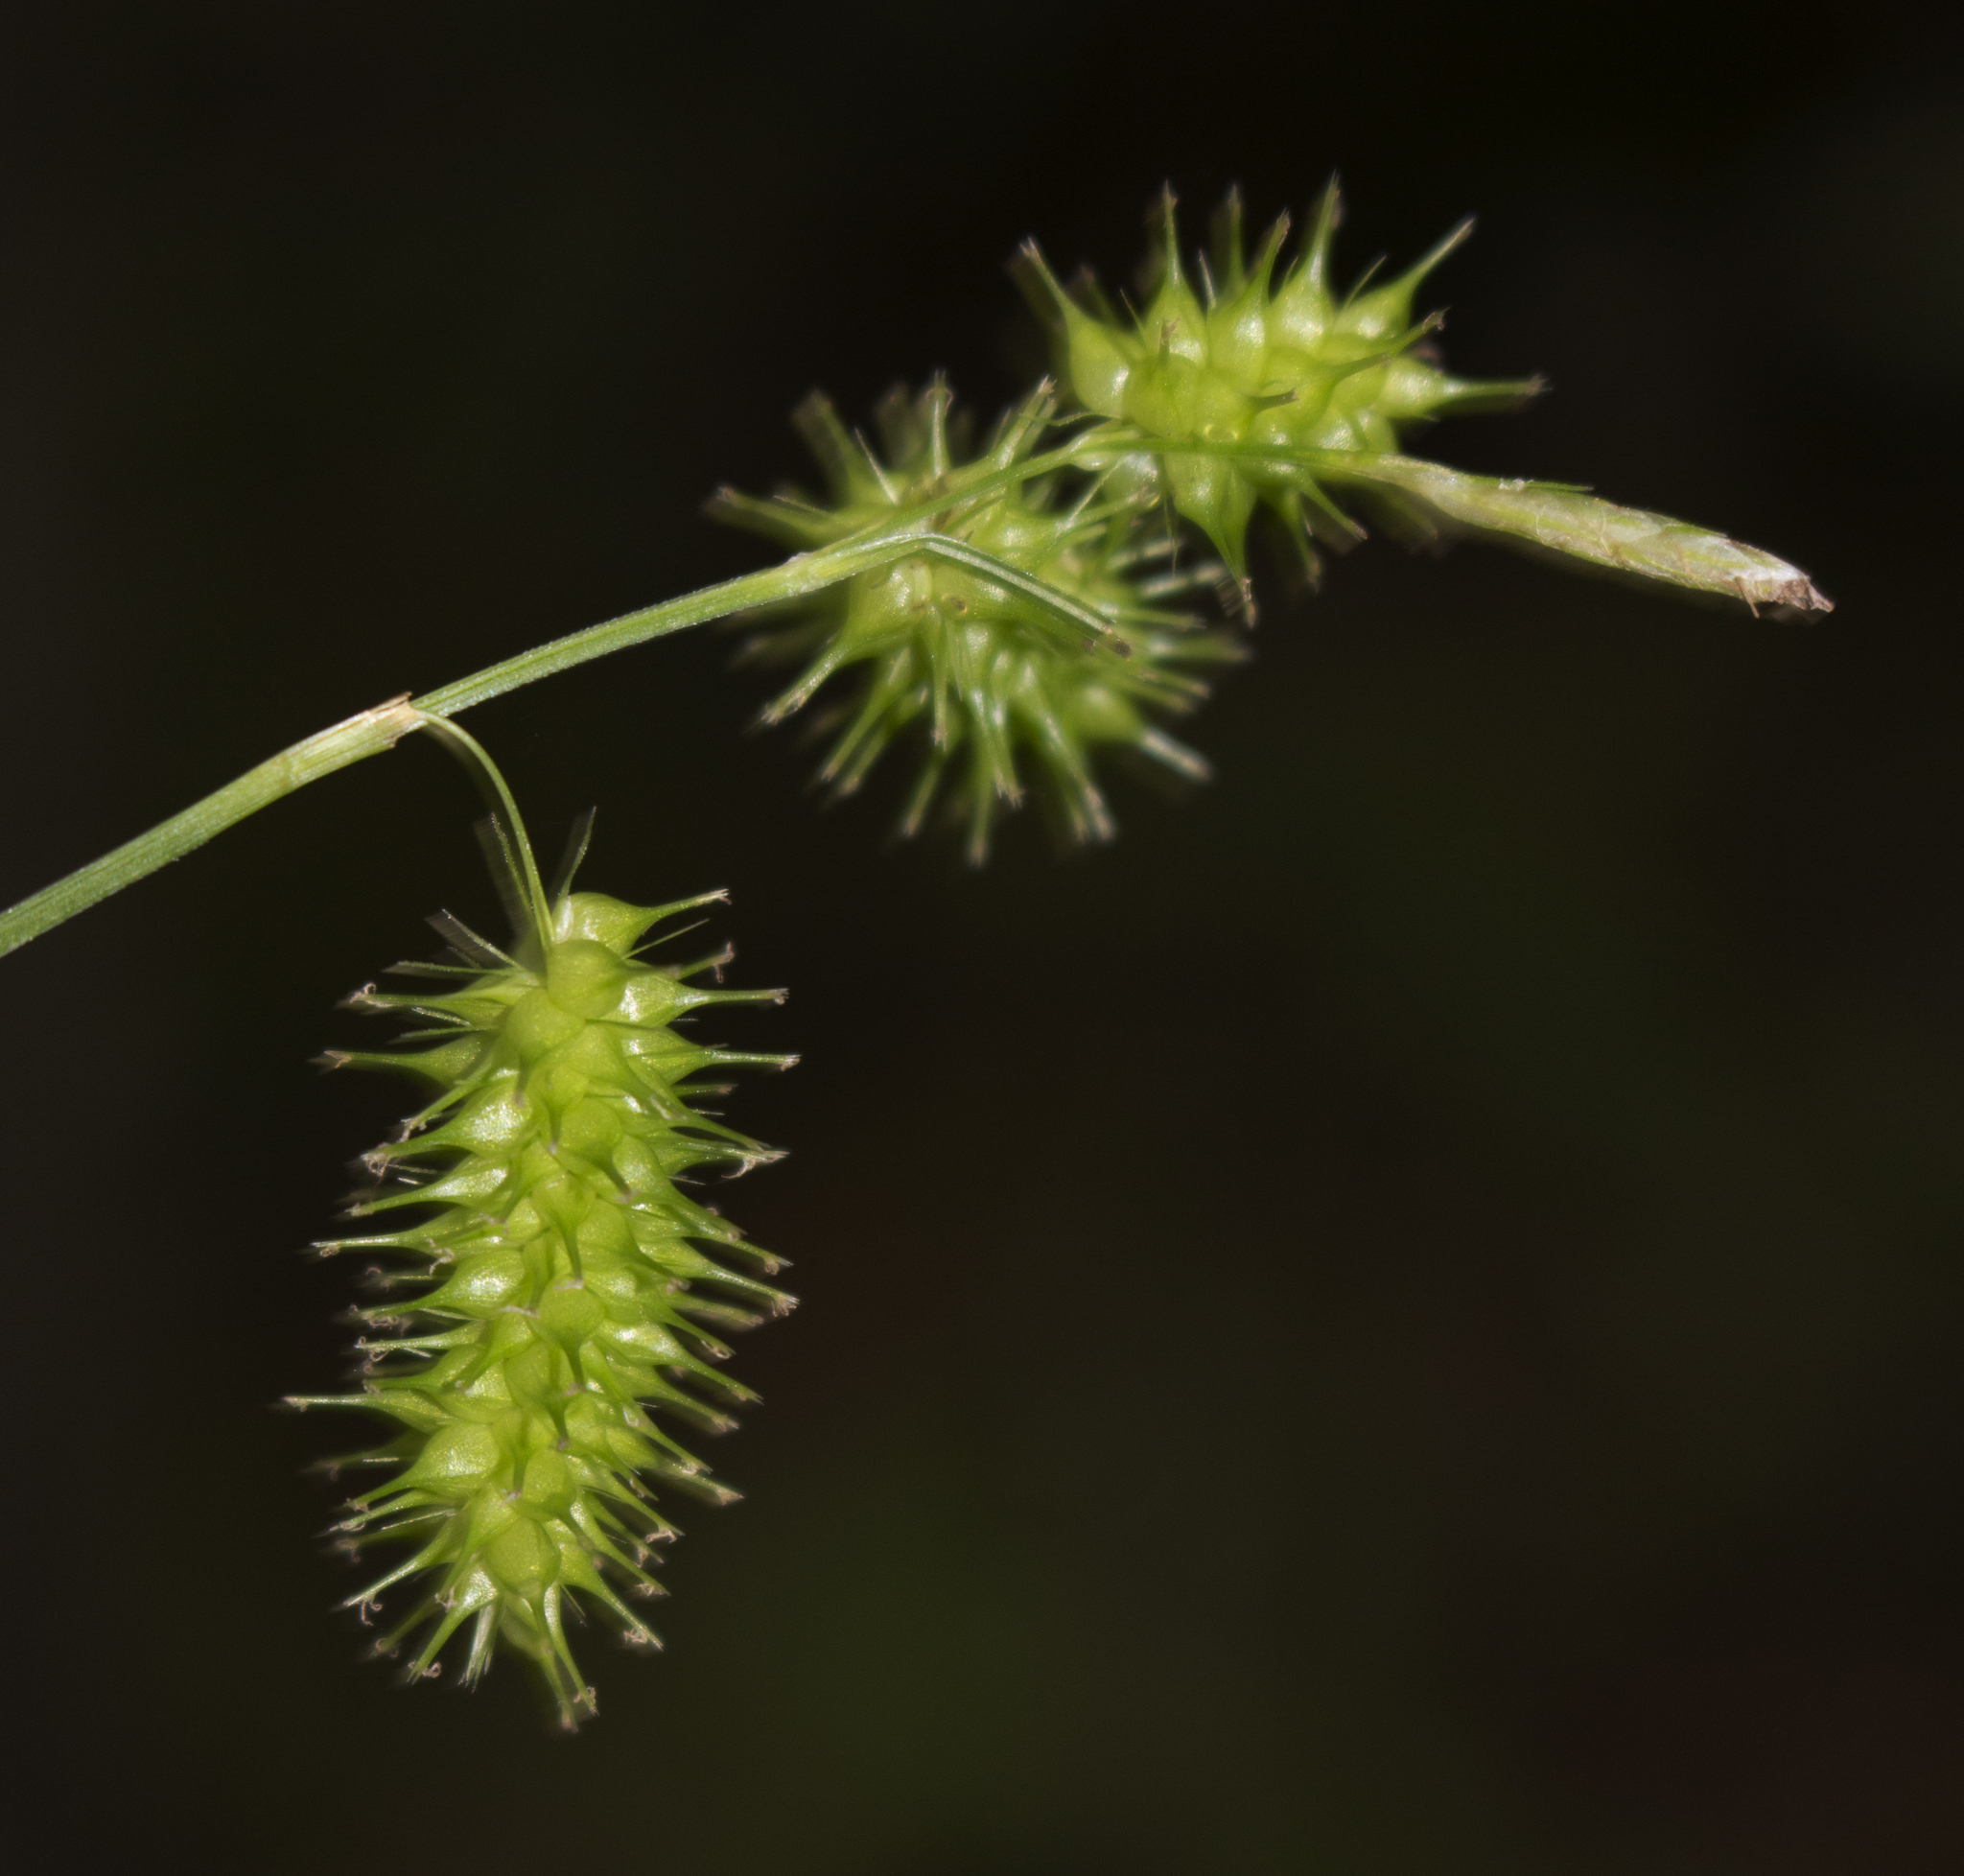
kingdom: Plantae
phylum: Tracheophyta
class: Liliopsida
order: Poales
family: Cyperaceae
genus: Carex
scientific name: Carex hystericina
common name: Bottlebrush sedge
